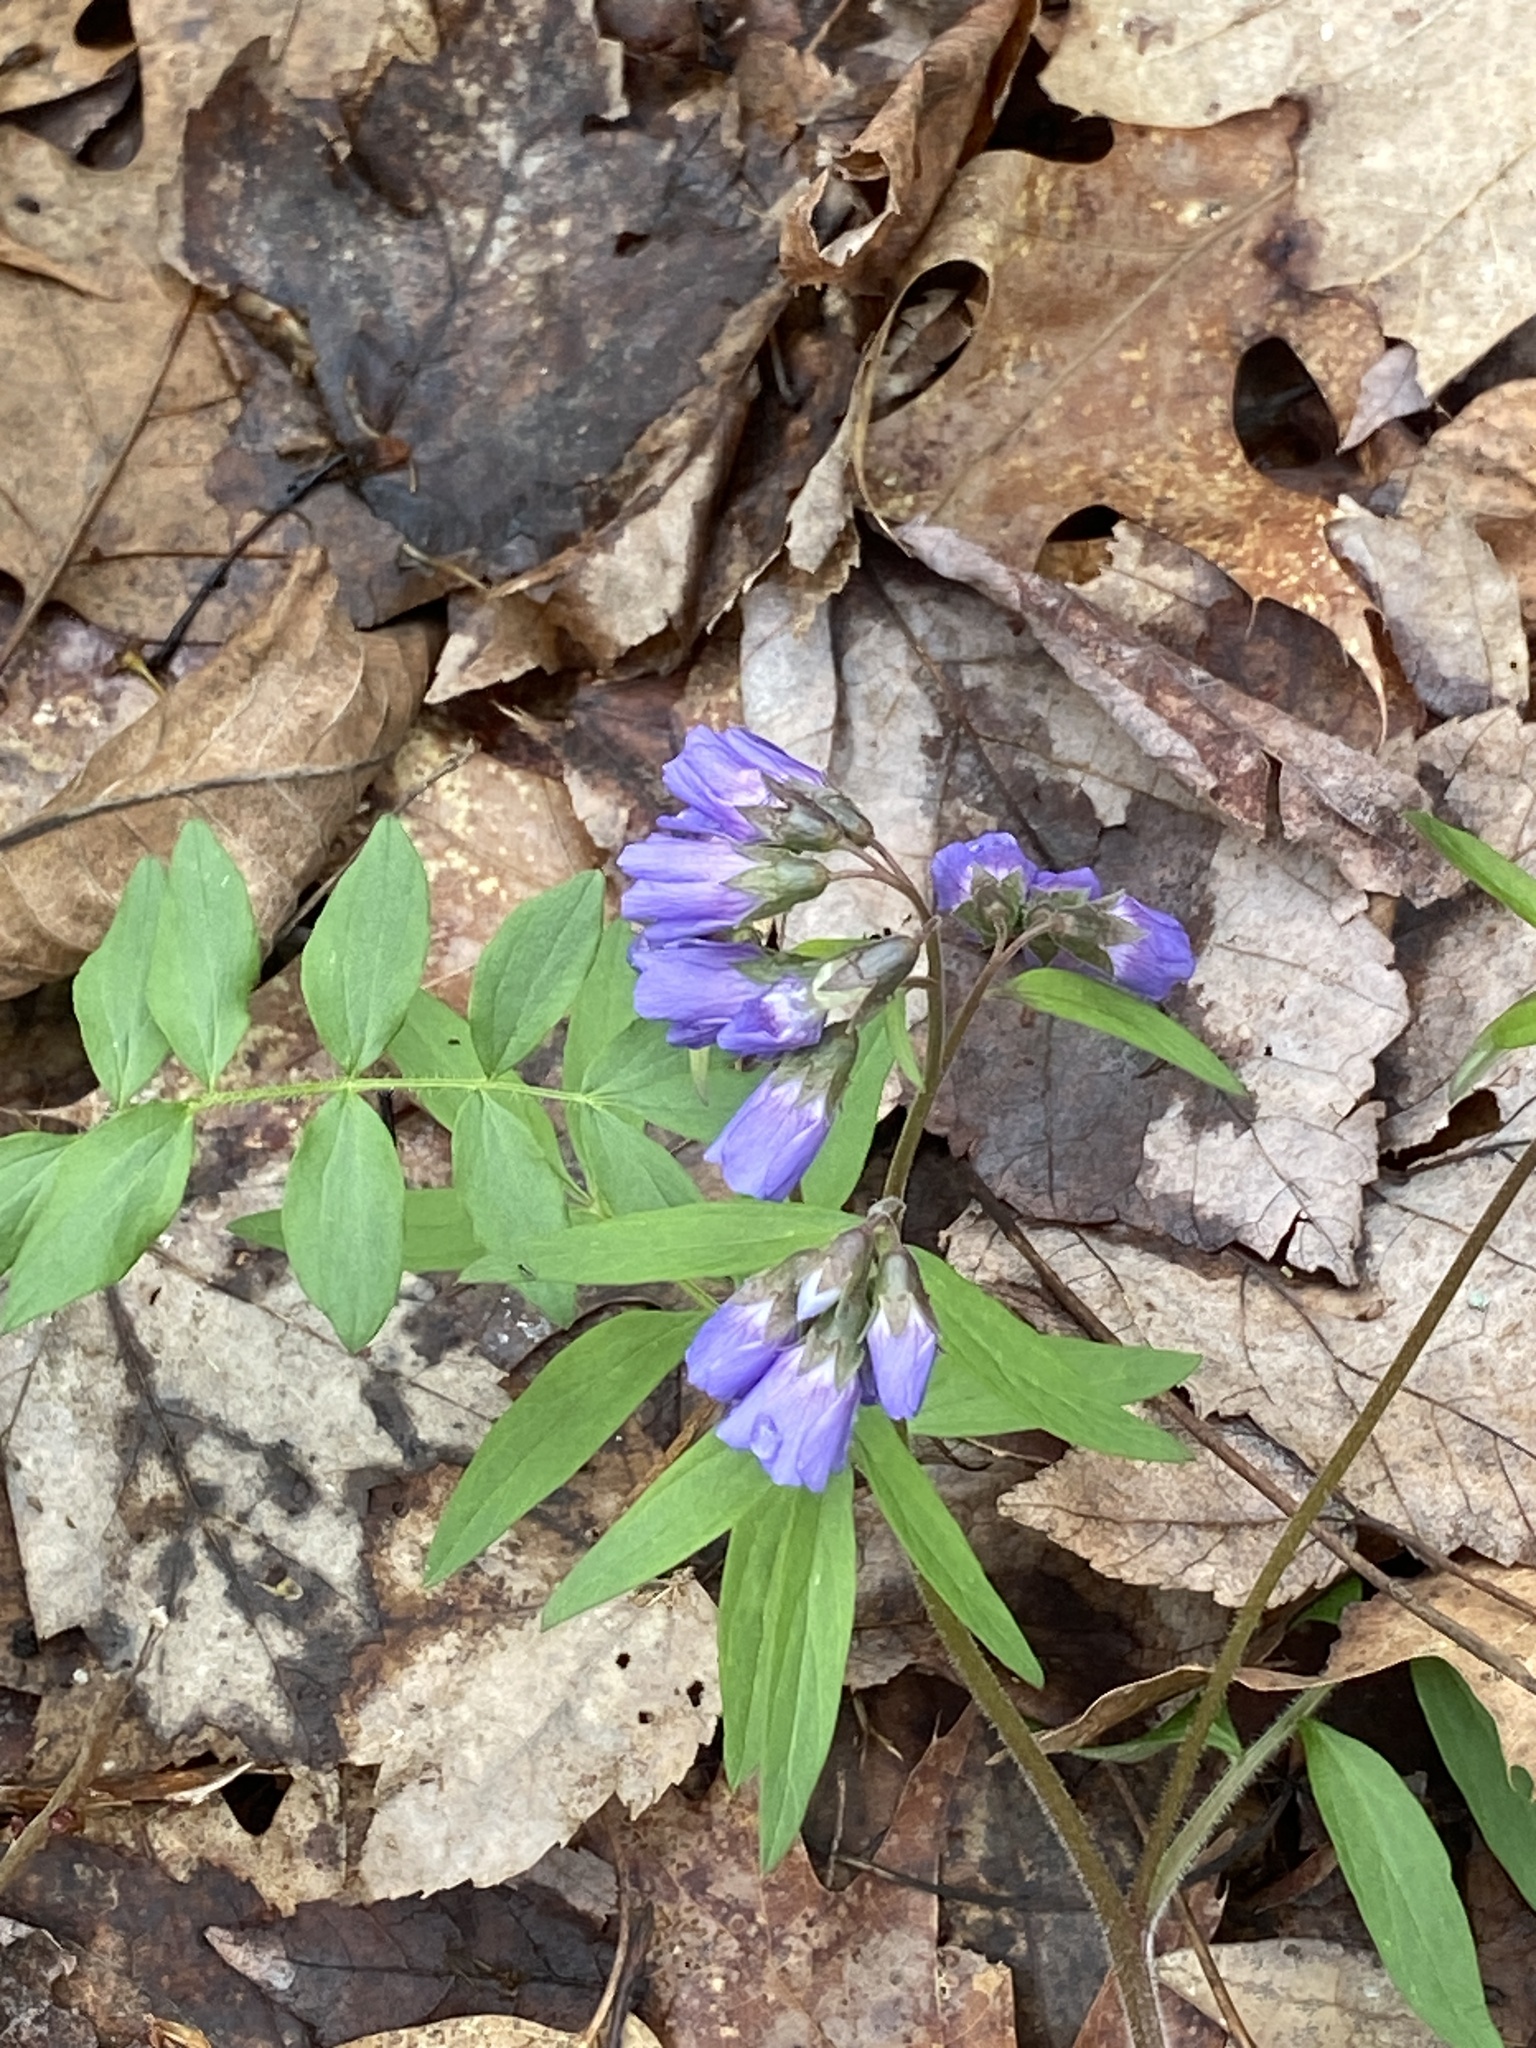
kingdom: Plantae
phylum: Tracheophyta
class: Magnoliopsida
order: Ericales
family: Polemoniaceae
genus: Polemonium
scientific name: Polemonium reptans
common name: Creeping jacob's-ladder
